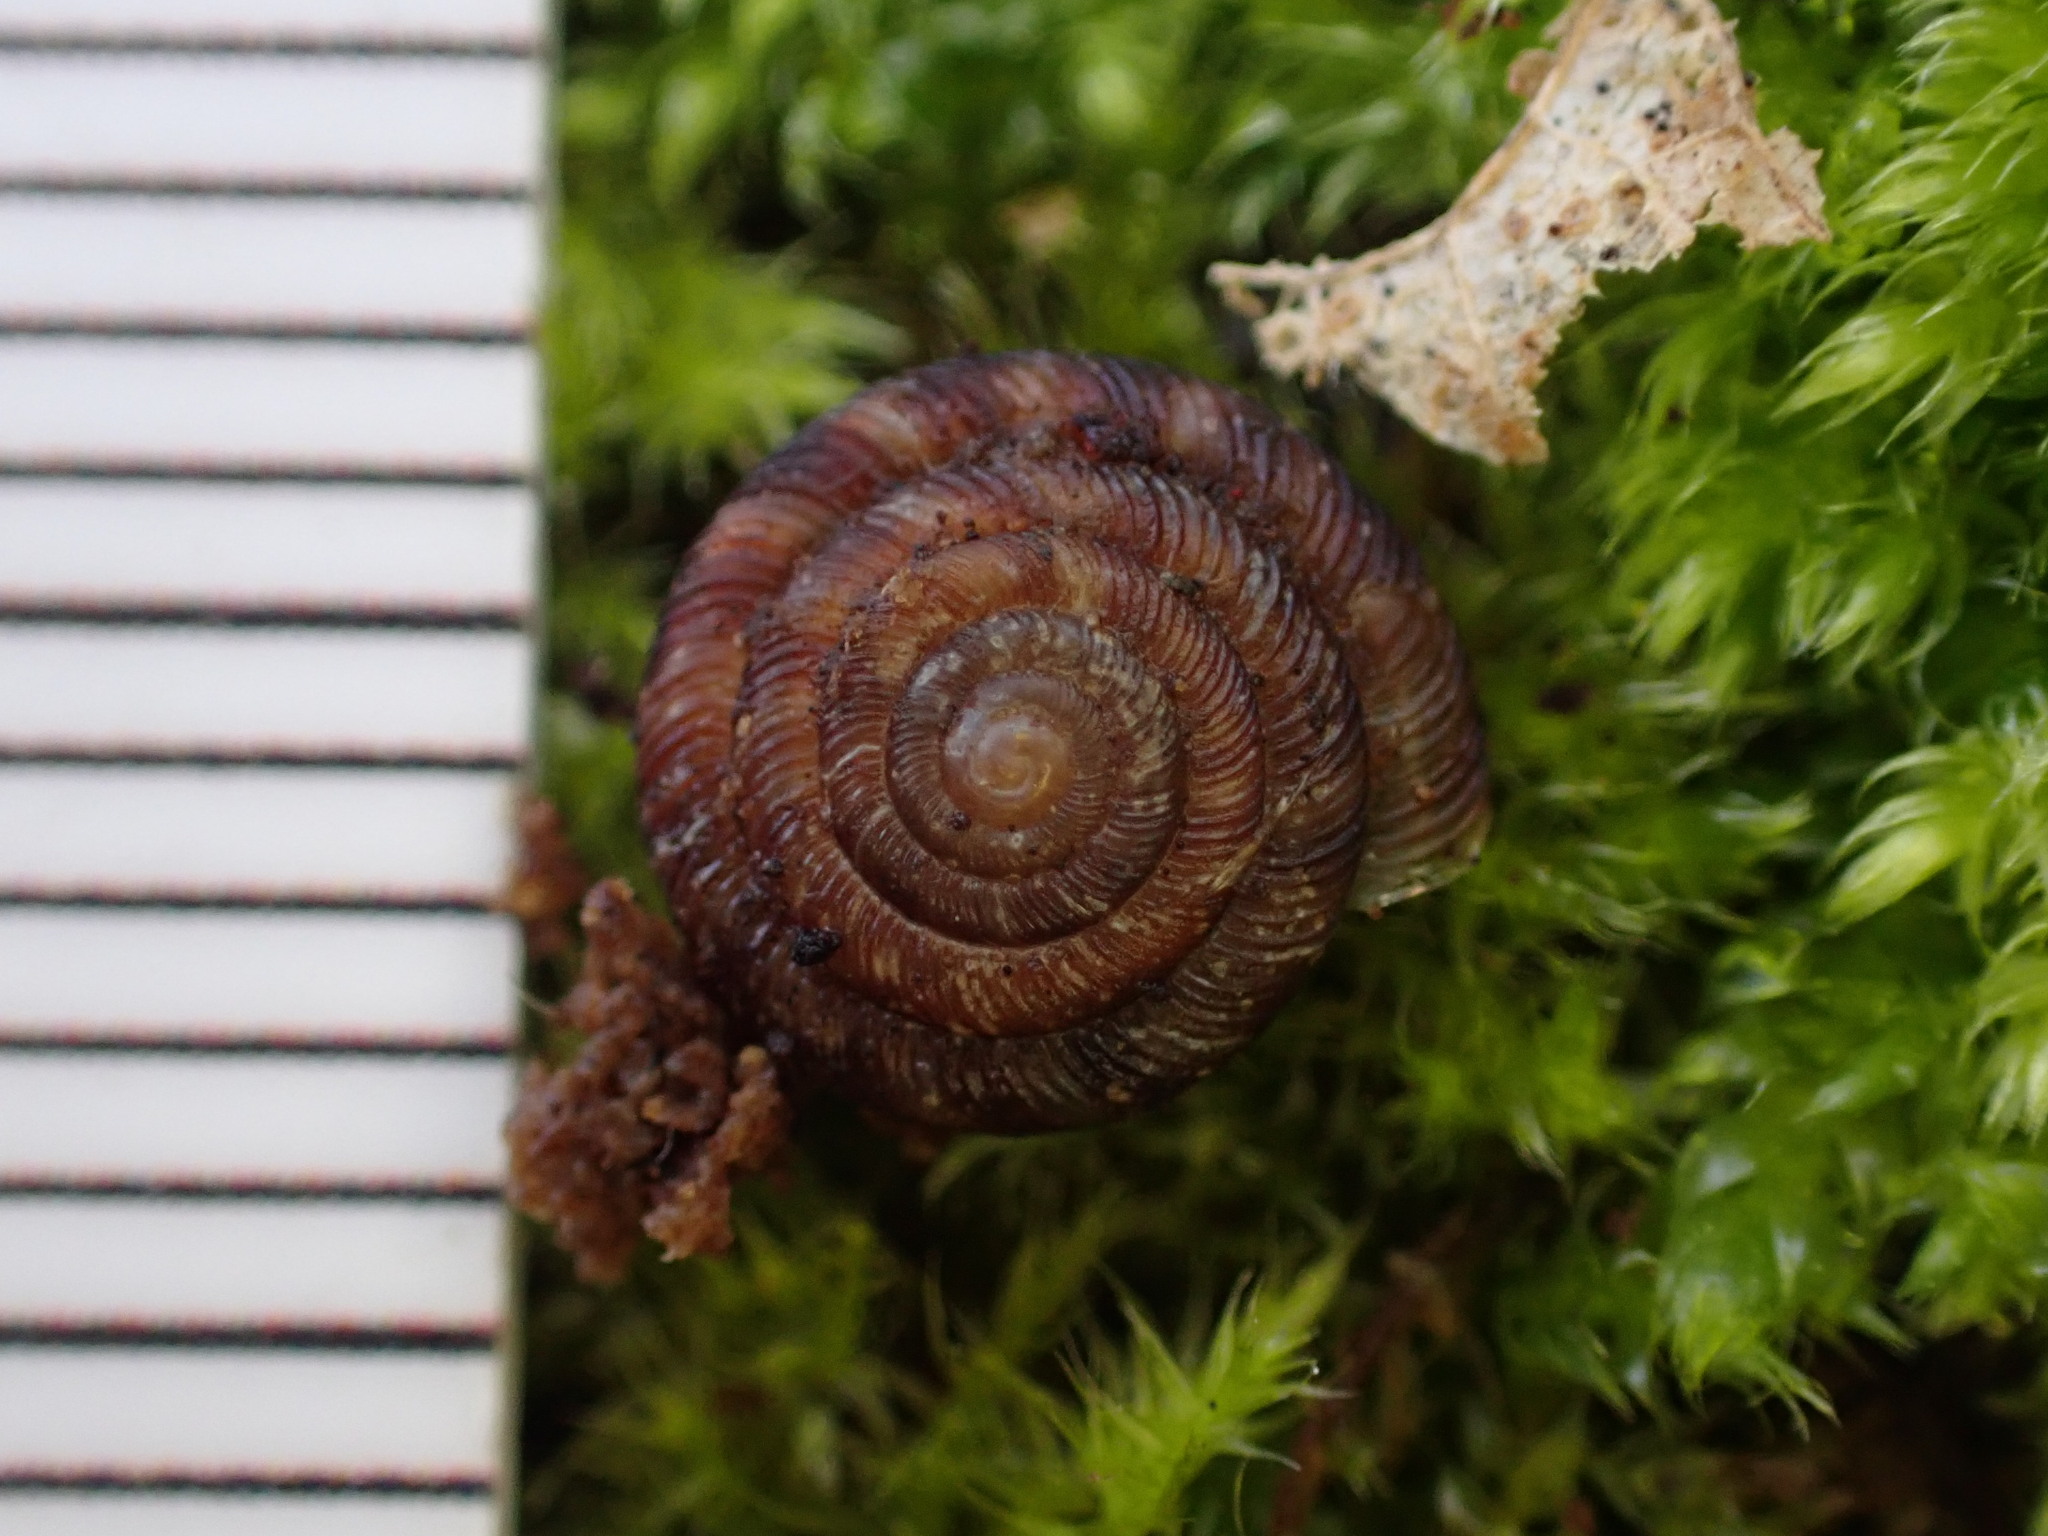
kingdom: Animalia
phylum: Mollusca
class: Gastropoda
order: Stylommatophora
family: Discidae
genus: Discus
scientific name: Discus rotundatus
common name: Rounded snail
